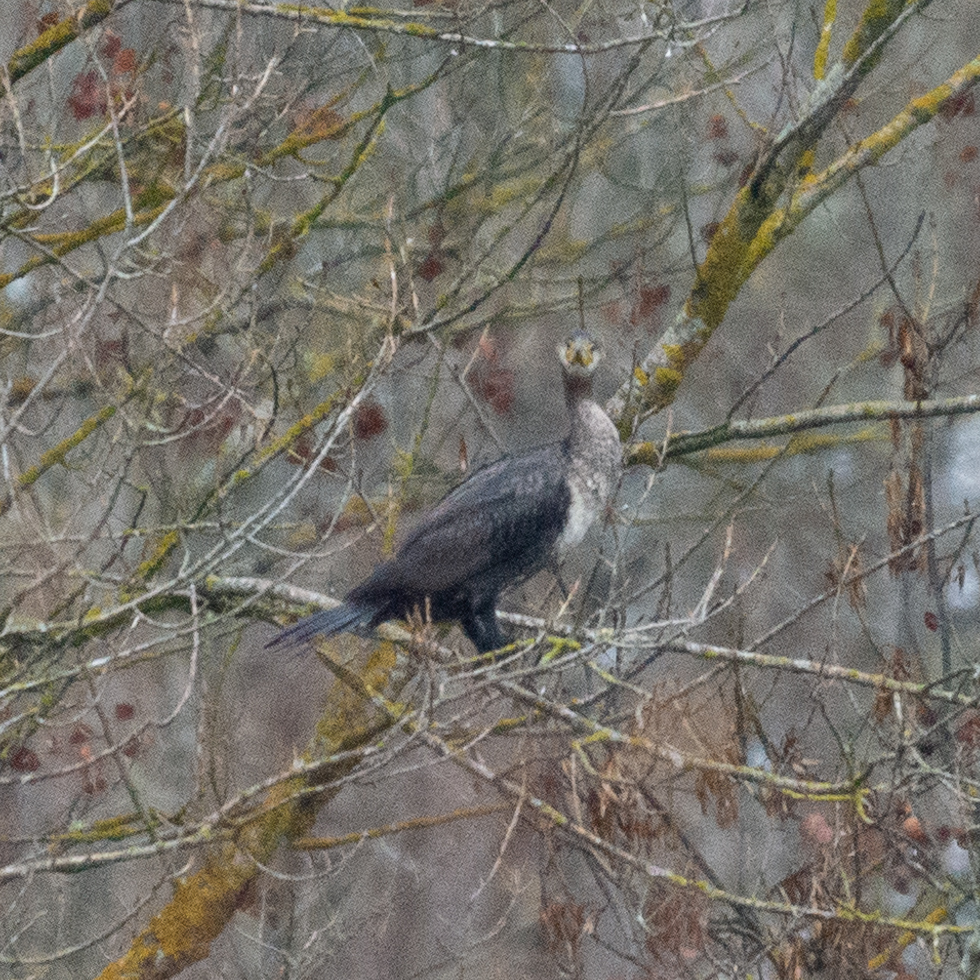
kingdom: Animalia
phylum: Chordata
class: Aves
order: Suliformes
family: Phalacrocoracidae
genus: Phalacrocorax
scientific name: Phalacrocorax carbo
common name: Great cormorant
